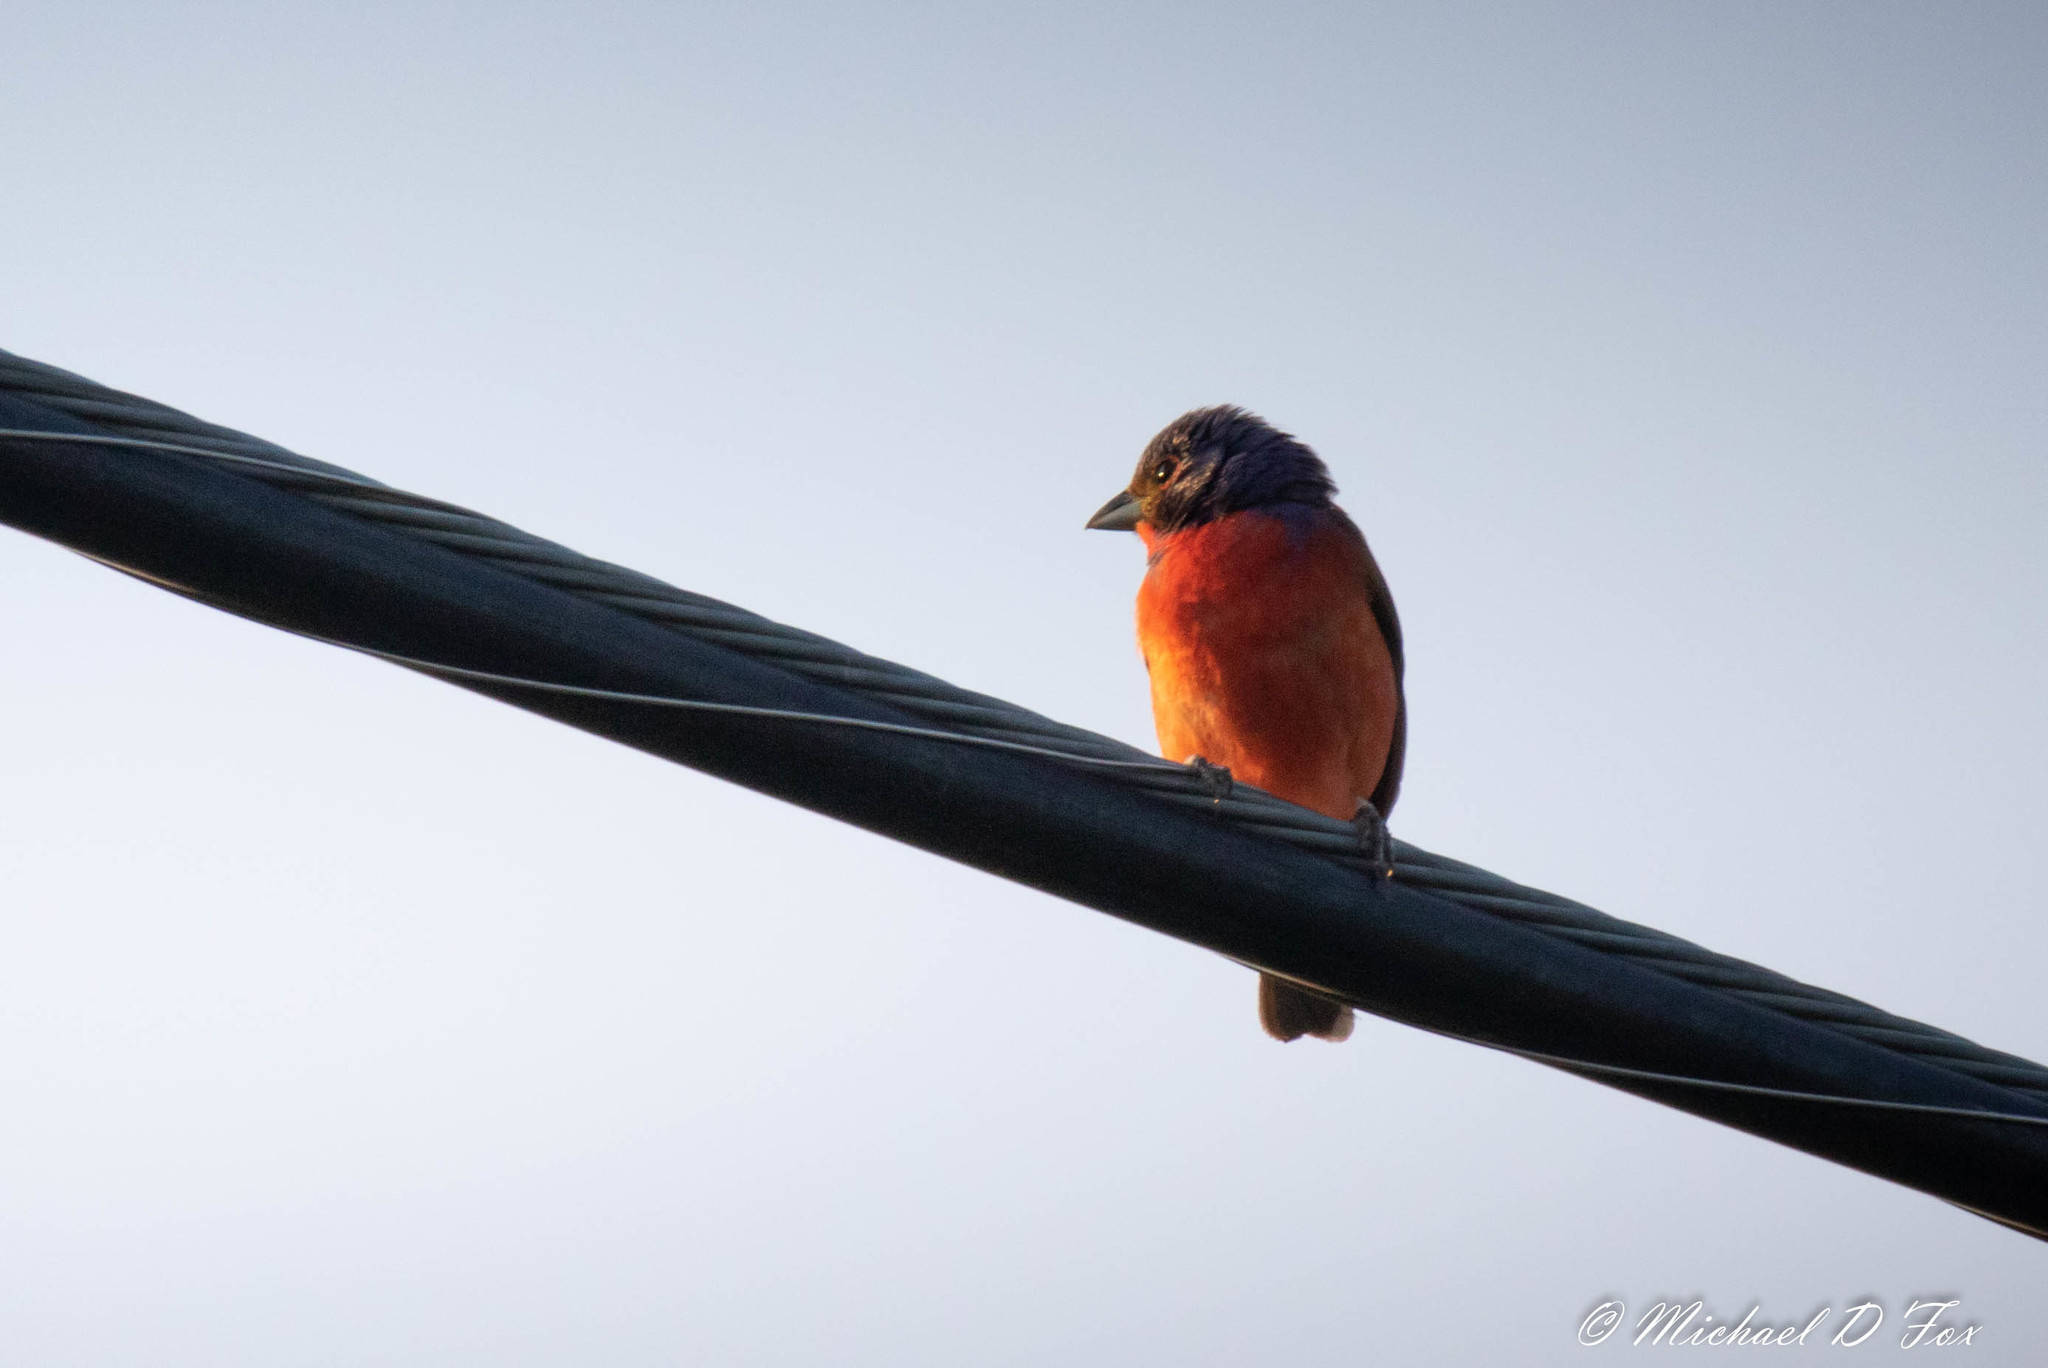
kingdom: Animalia
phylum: Chordata
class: Aves
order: Passeriformes
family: Cardinalidae
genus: Passerina
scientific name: Passerina ciris
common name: Painted bunting
